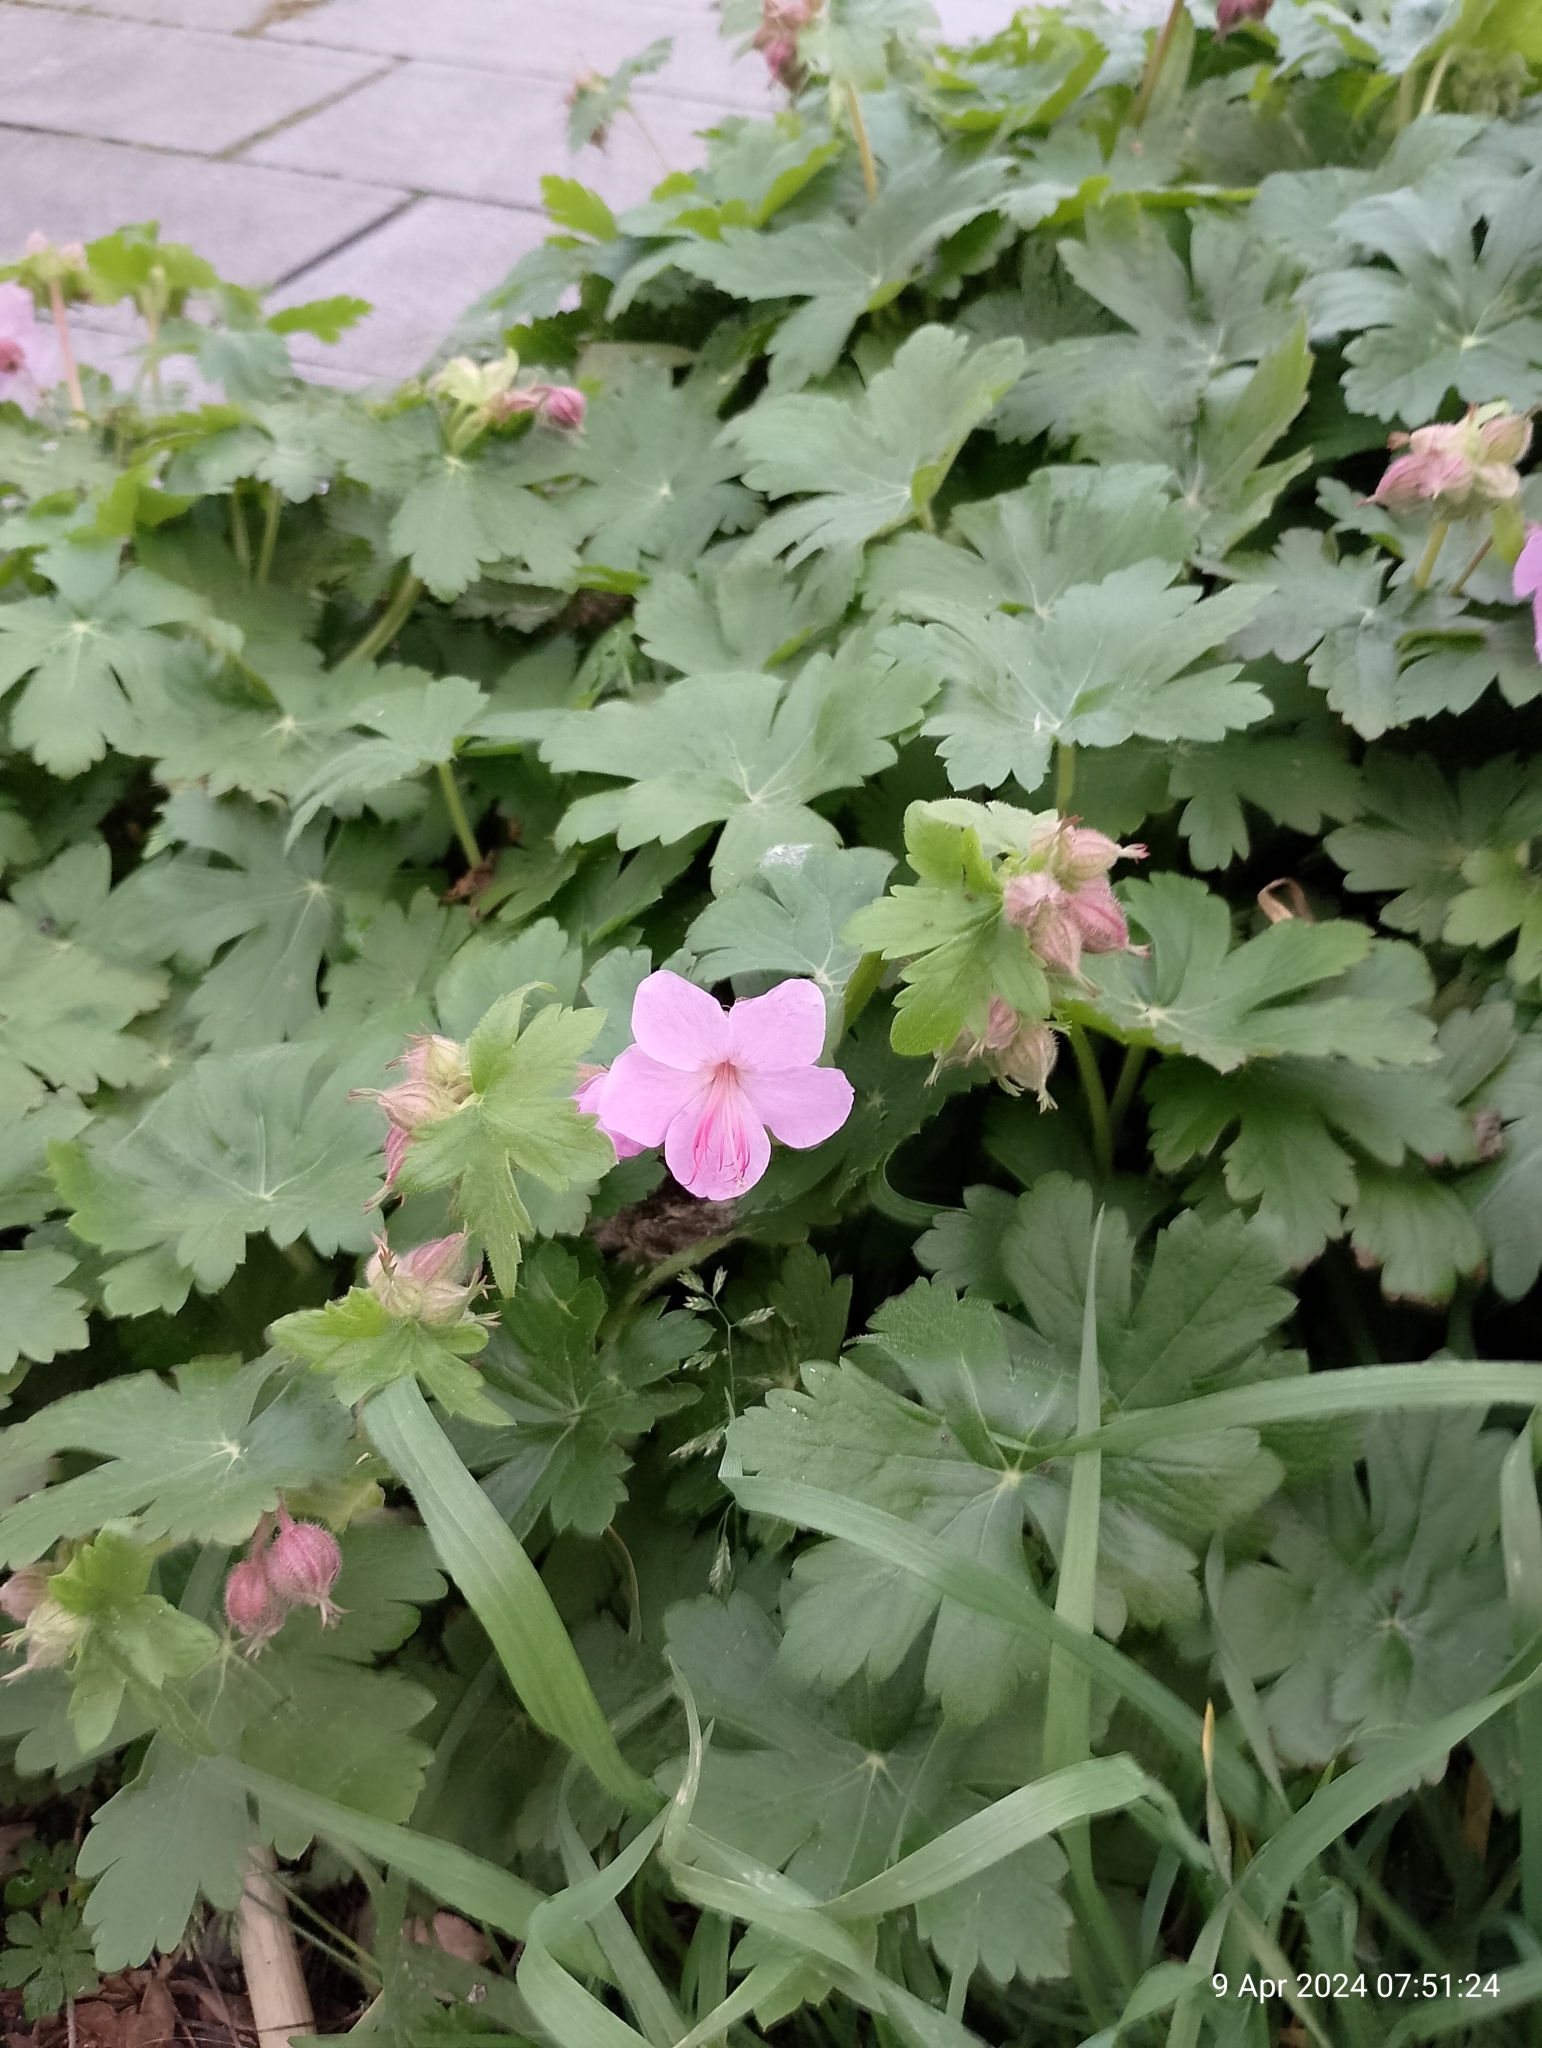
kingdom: Plantae
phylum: Tracheophyta
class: Magnoliopsida
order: Geraniales
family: Geraniaceae
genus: Geranium
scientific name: Geranium macrorrhizum
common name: Rock crane's-bill
